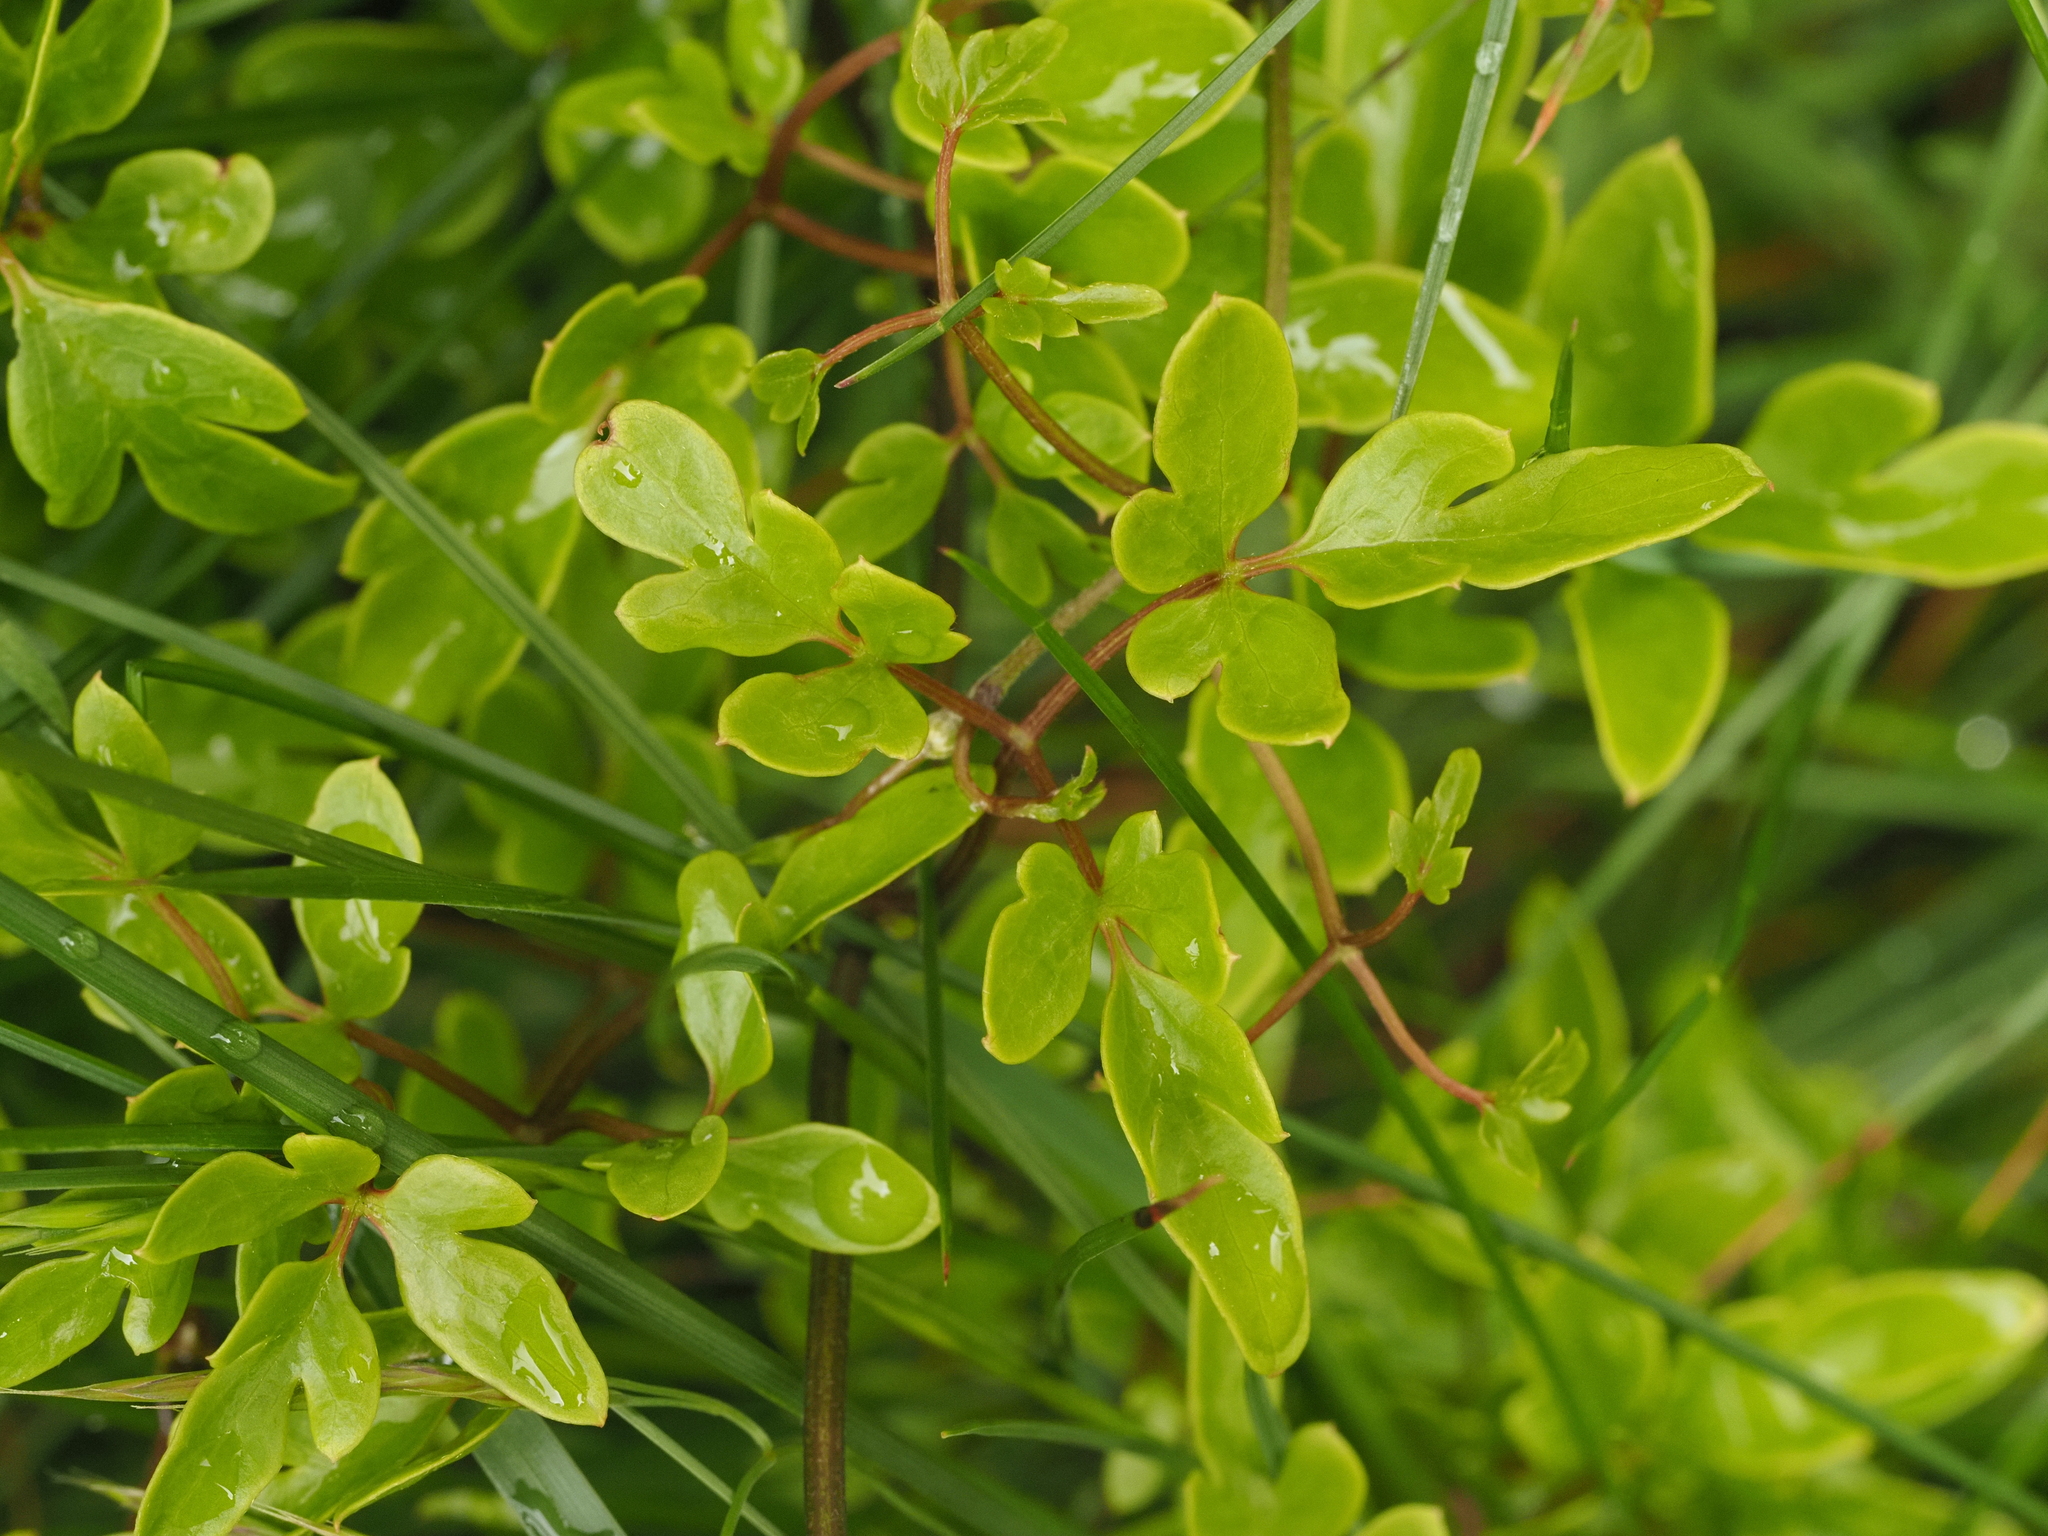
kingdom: Plantae
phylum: Tracheophyta
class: Magnoliopsida
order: Ranunculales
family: Ranunculaceae
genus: Clematis
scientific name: Clematis forsteri
